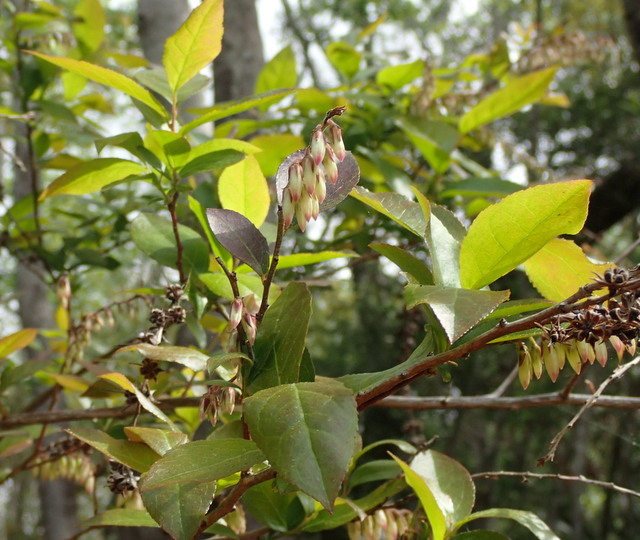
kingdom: Plantae
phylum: Tracheophyta
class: Magnoliopsida
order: Ericales
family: Ericaceae
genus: Eubotrys
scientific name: Eubotrys racemosa
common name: Fetterbush
